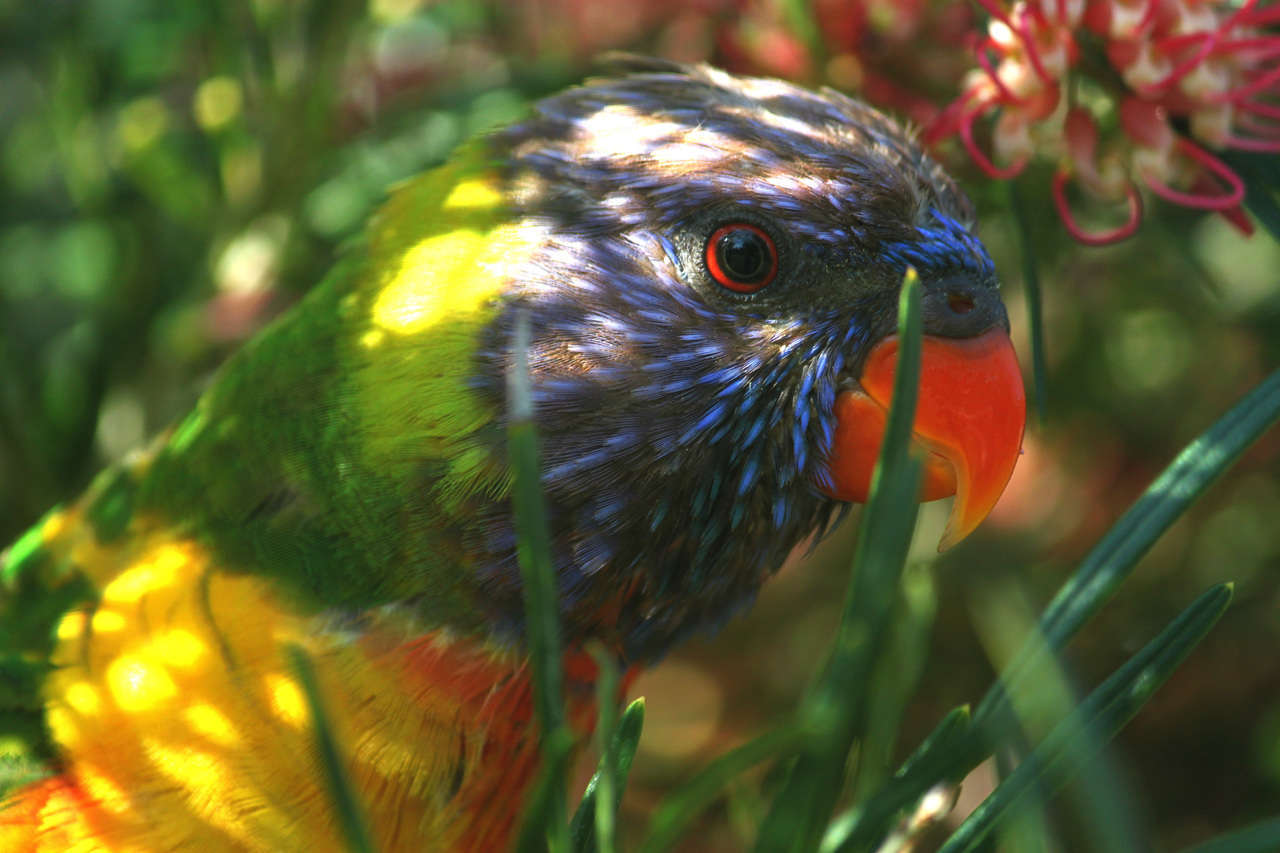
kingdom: Animalia
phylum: Chordata
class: Aves
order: Psittaciformes
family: Psittacidae
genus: Trichoglossus
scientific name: Trichoglossus haematodus
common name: Coconut lorikeet
